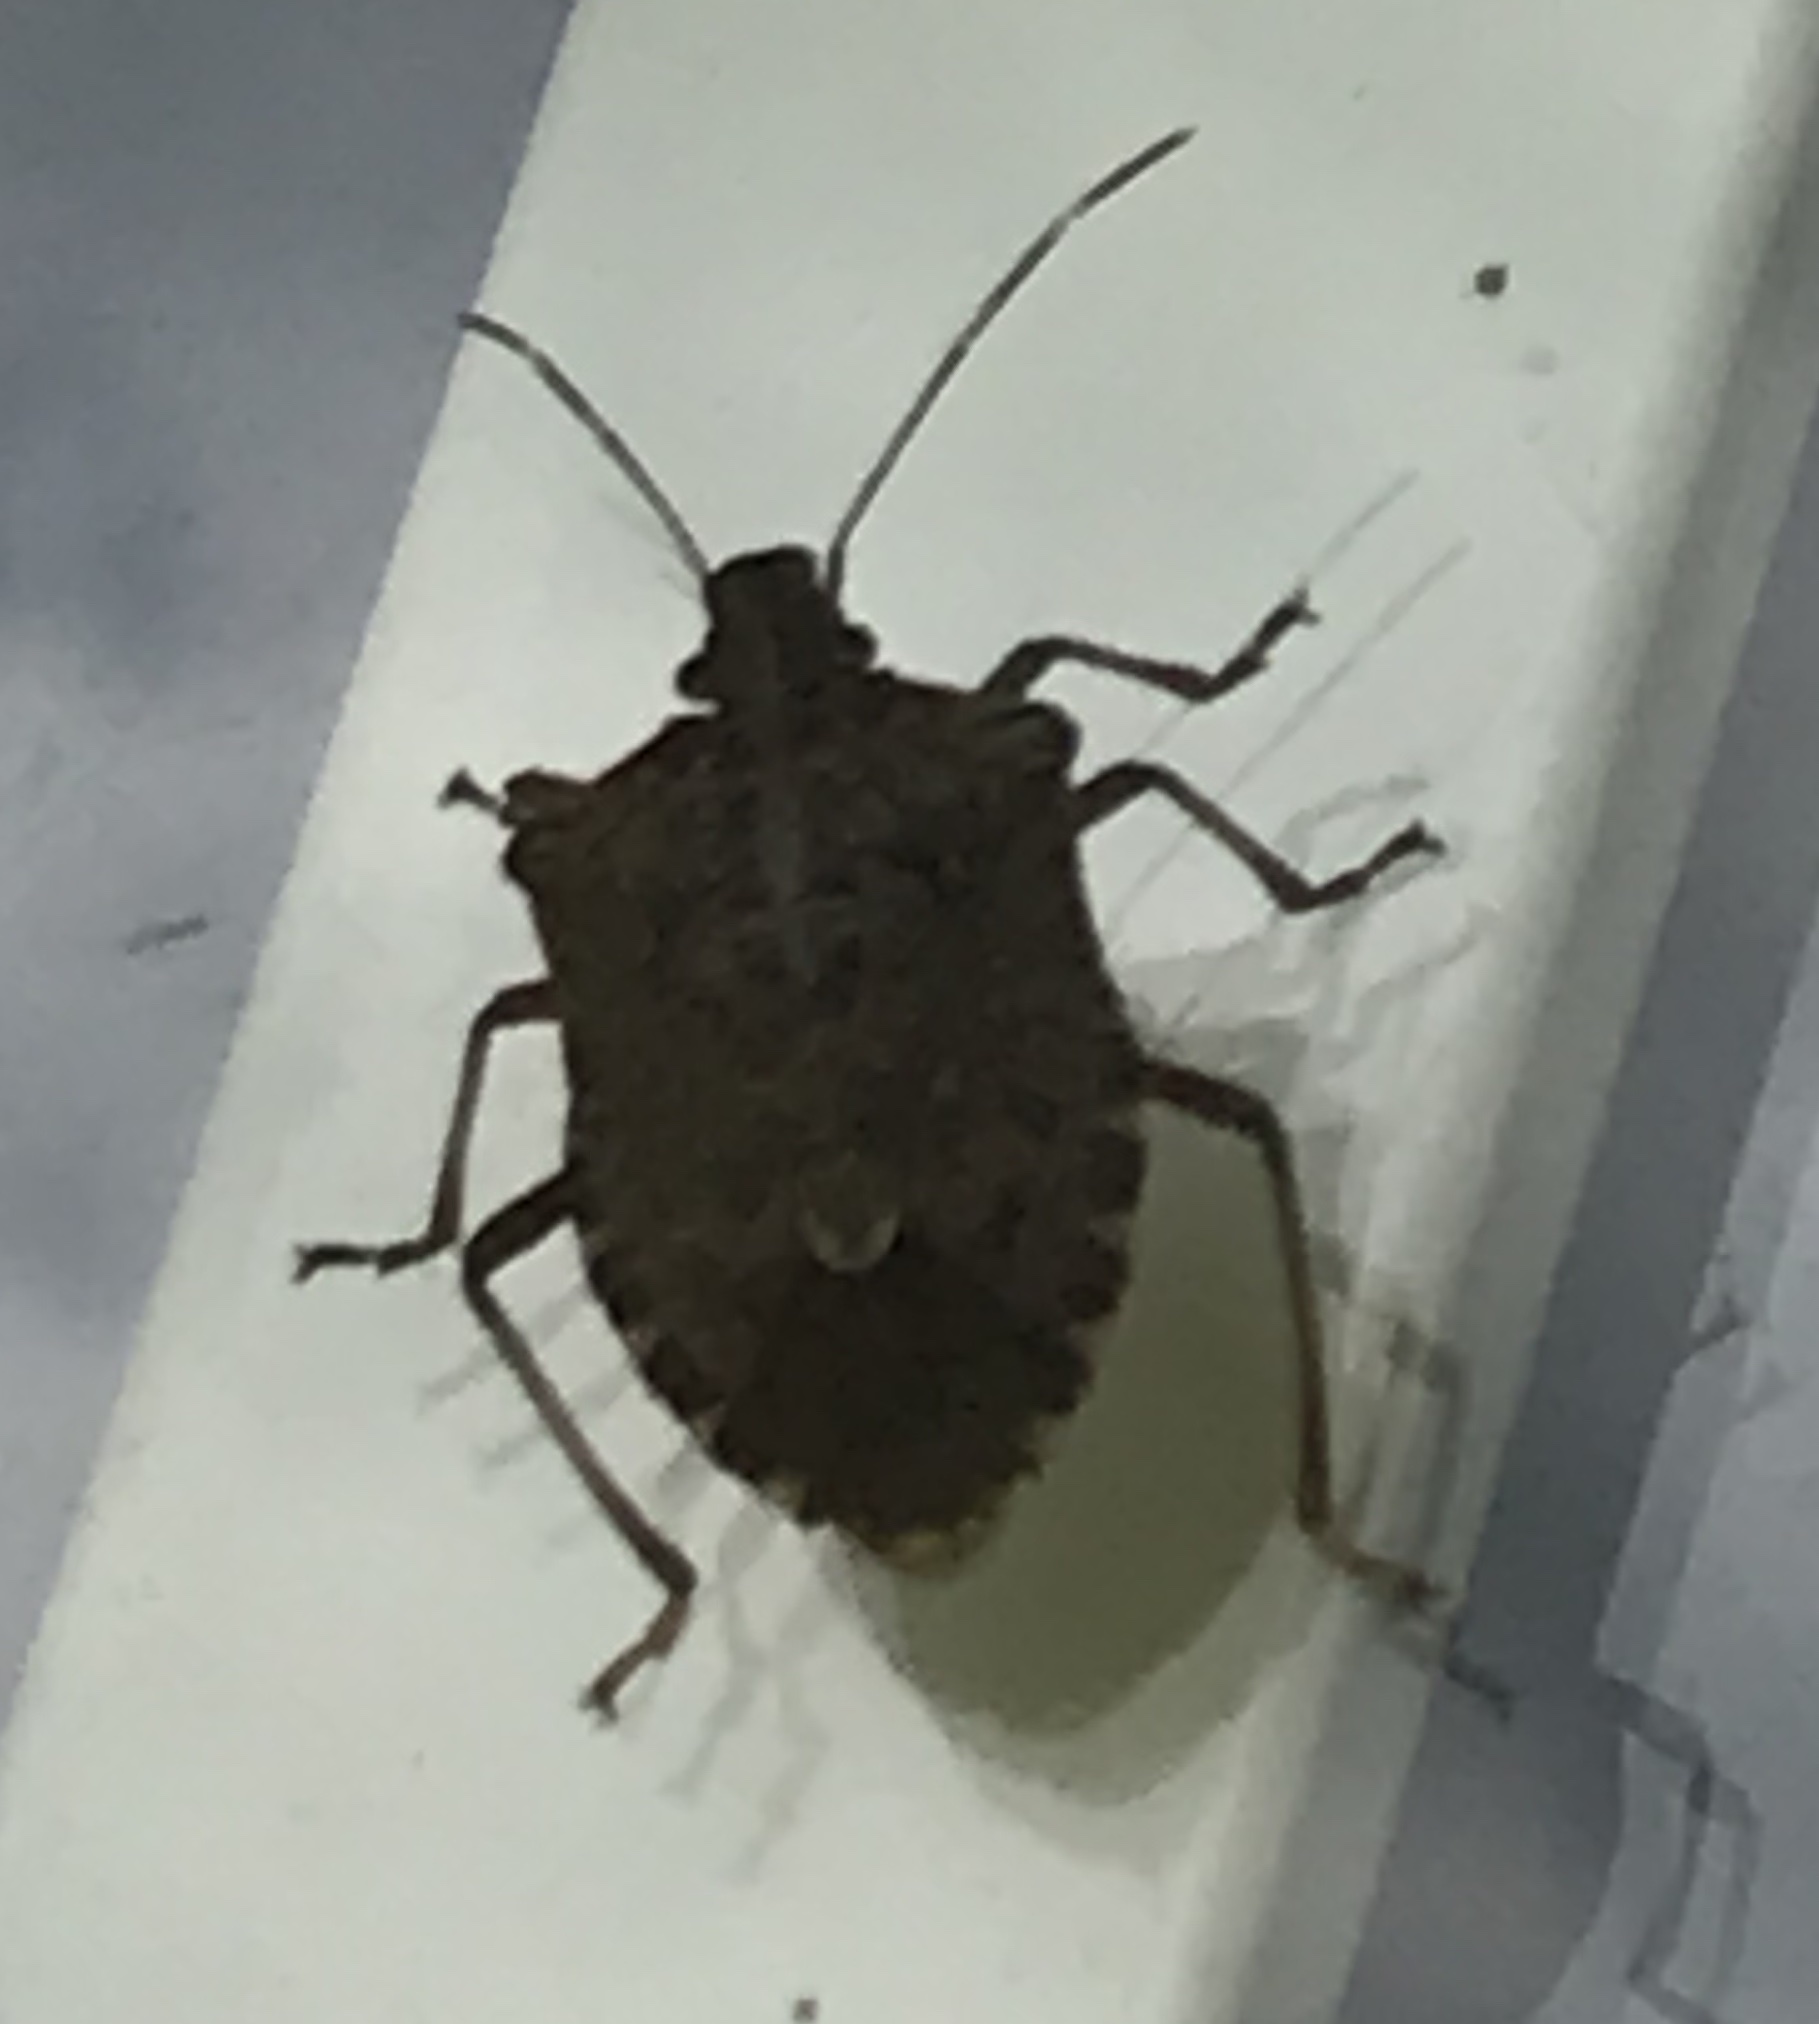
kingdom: Animalia
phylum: Arthropoda
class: Insecta
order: Hemiptera
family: Pentatomidae
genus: Halyomorpha
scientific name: Halyomorpha halys
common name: Brown marmorated stink bug
